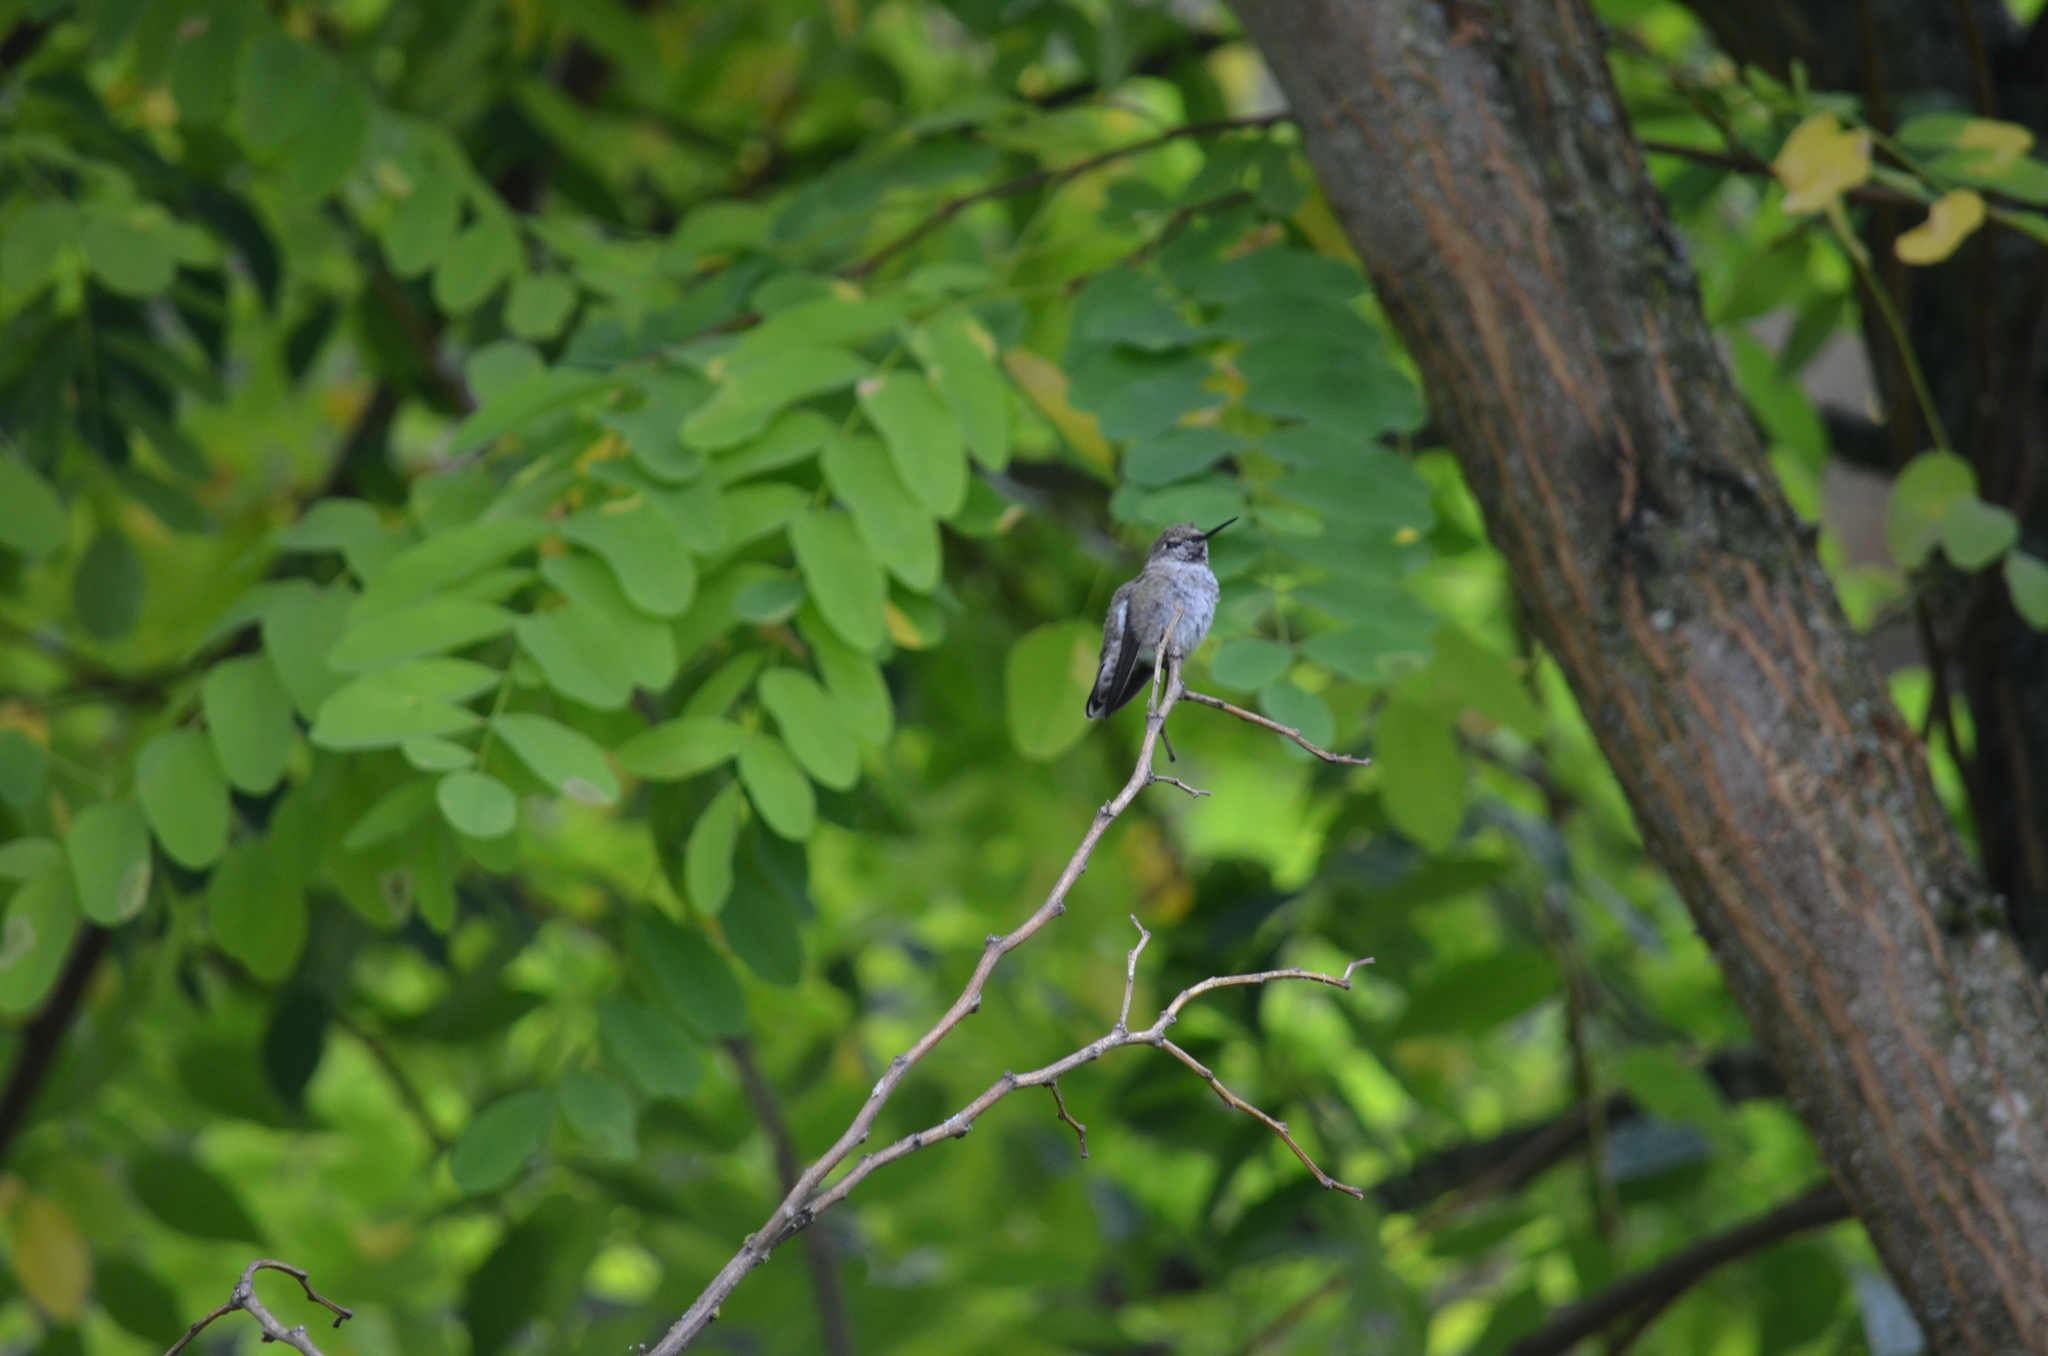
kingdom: Animalia
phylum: Chordata
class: Aves
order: Apodiformes
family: Trochilidae
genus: Calypte
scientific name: Calypte anna
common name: Anna's hummingbird
